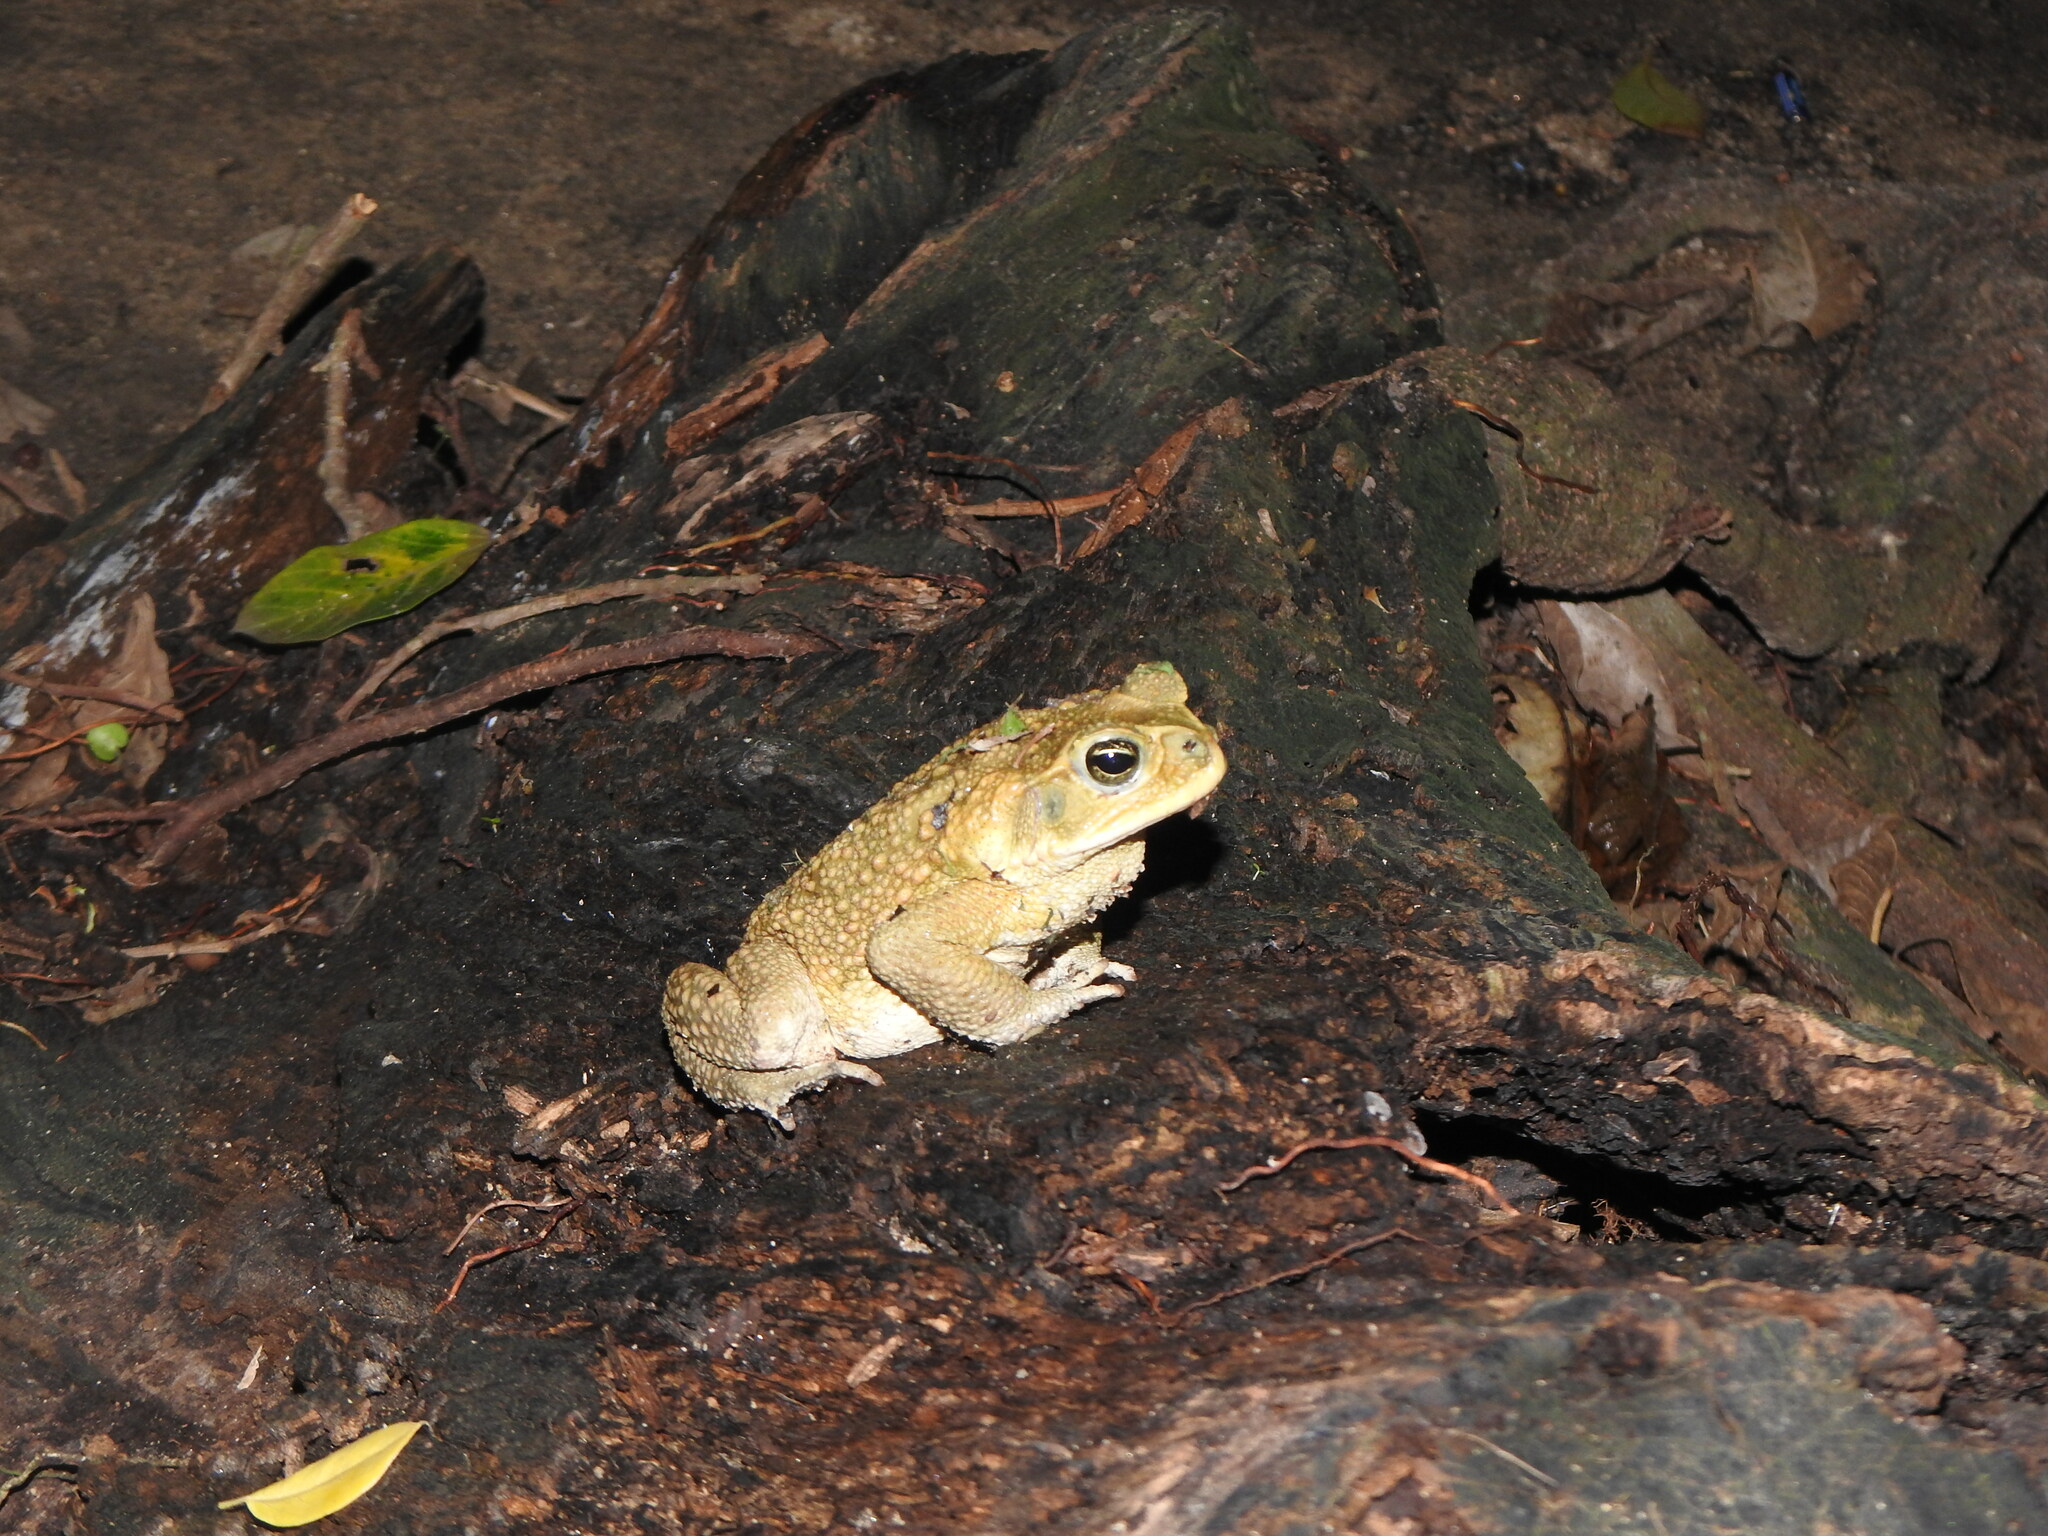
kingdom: Animalia
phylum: Chordata
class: Amphibia
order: Anura
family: Bufonidae
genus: Rhinella
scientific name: Rhinella horribilis
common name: Mesoamerican cane toad
